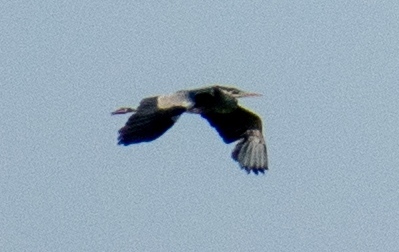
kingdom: Animalia
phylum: Chordata
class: Aves
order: Pelecaniformes
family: Ardeidae
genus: Ardea
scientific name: Ardea cinerea
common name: Grey heron
